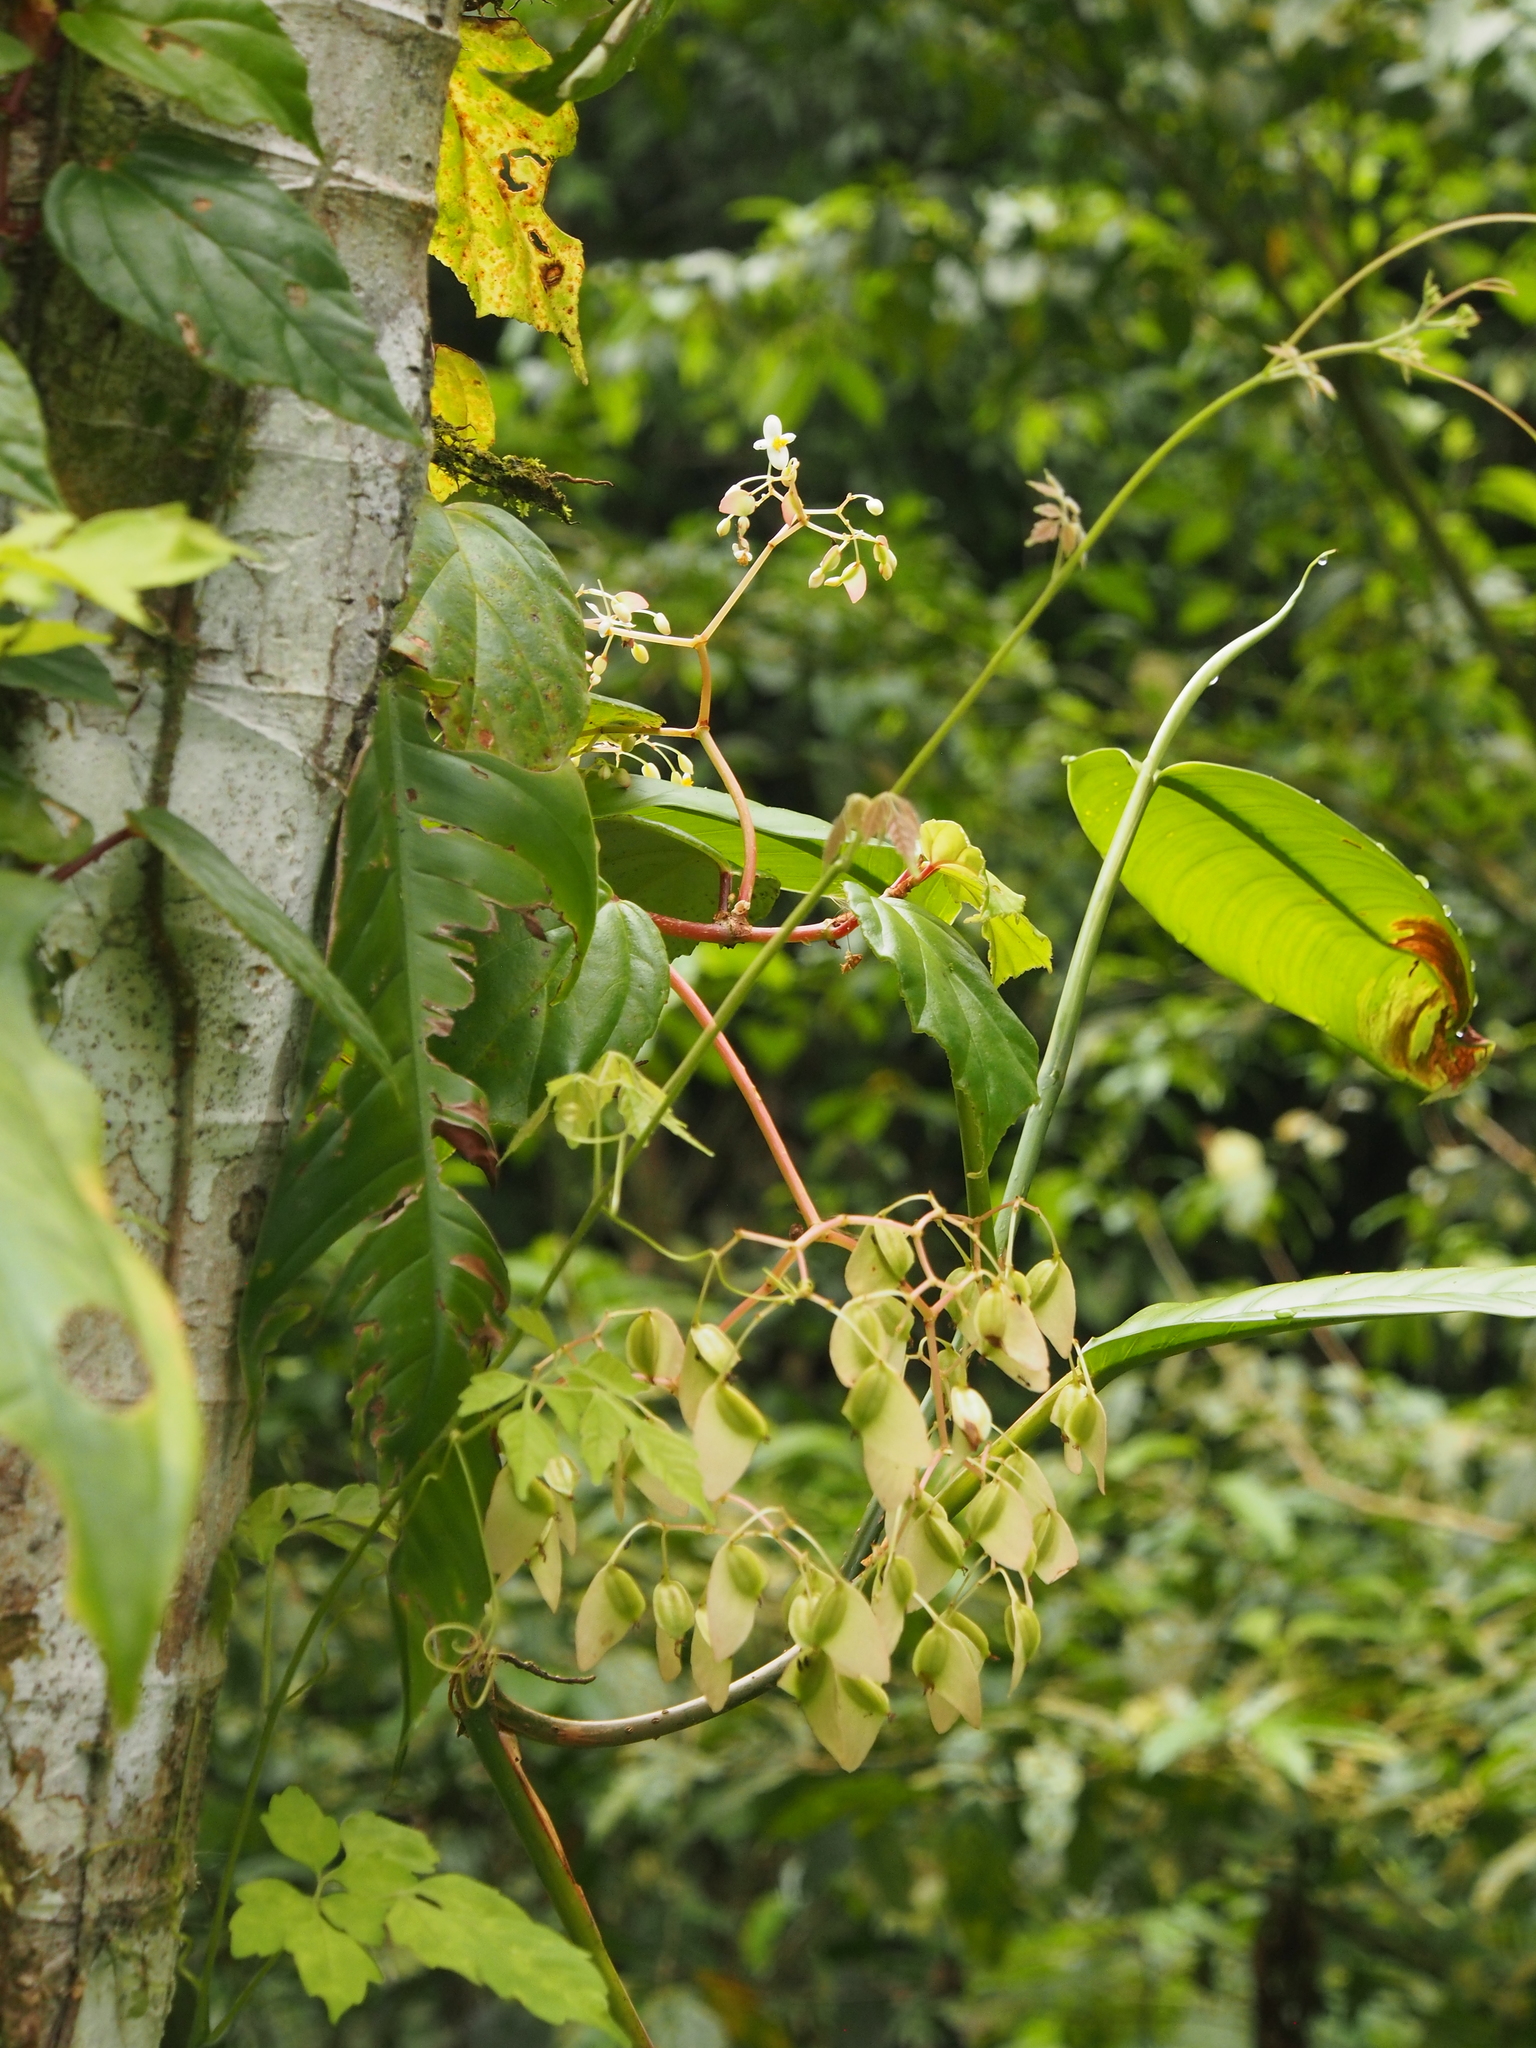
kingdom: Plantae
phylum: Tracheophyta
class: Magnoliopsida
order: Cucurbitales
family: Begoniaceae
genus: Begonia
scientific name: Begonia glabra
